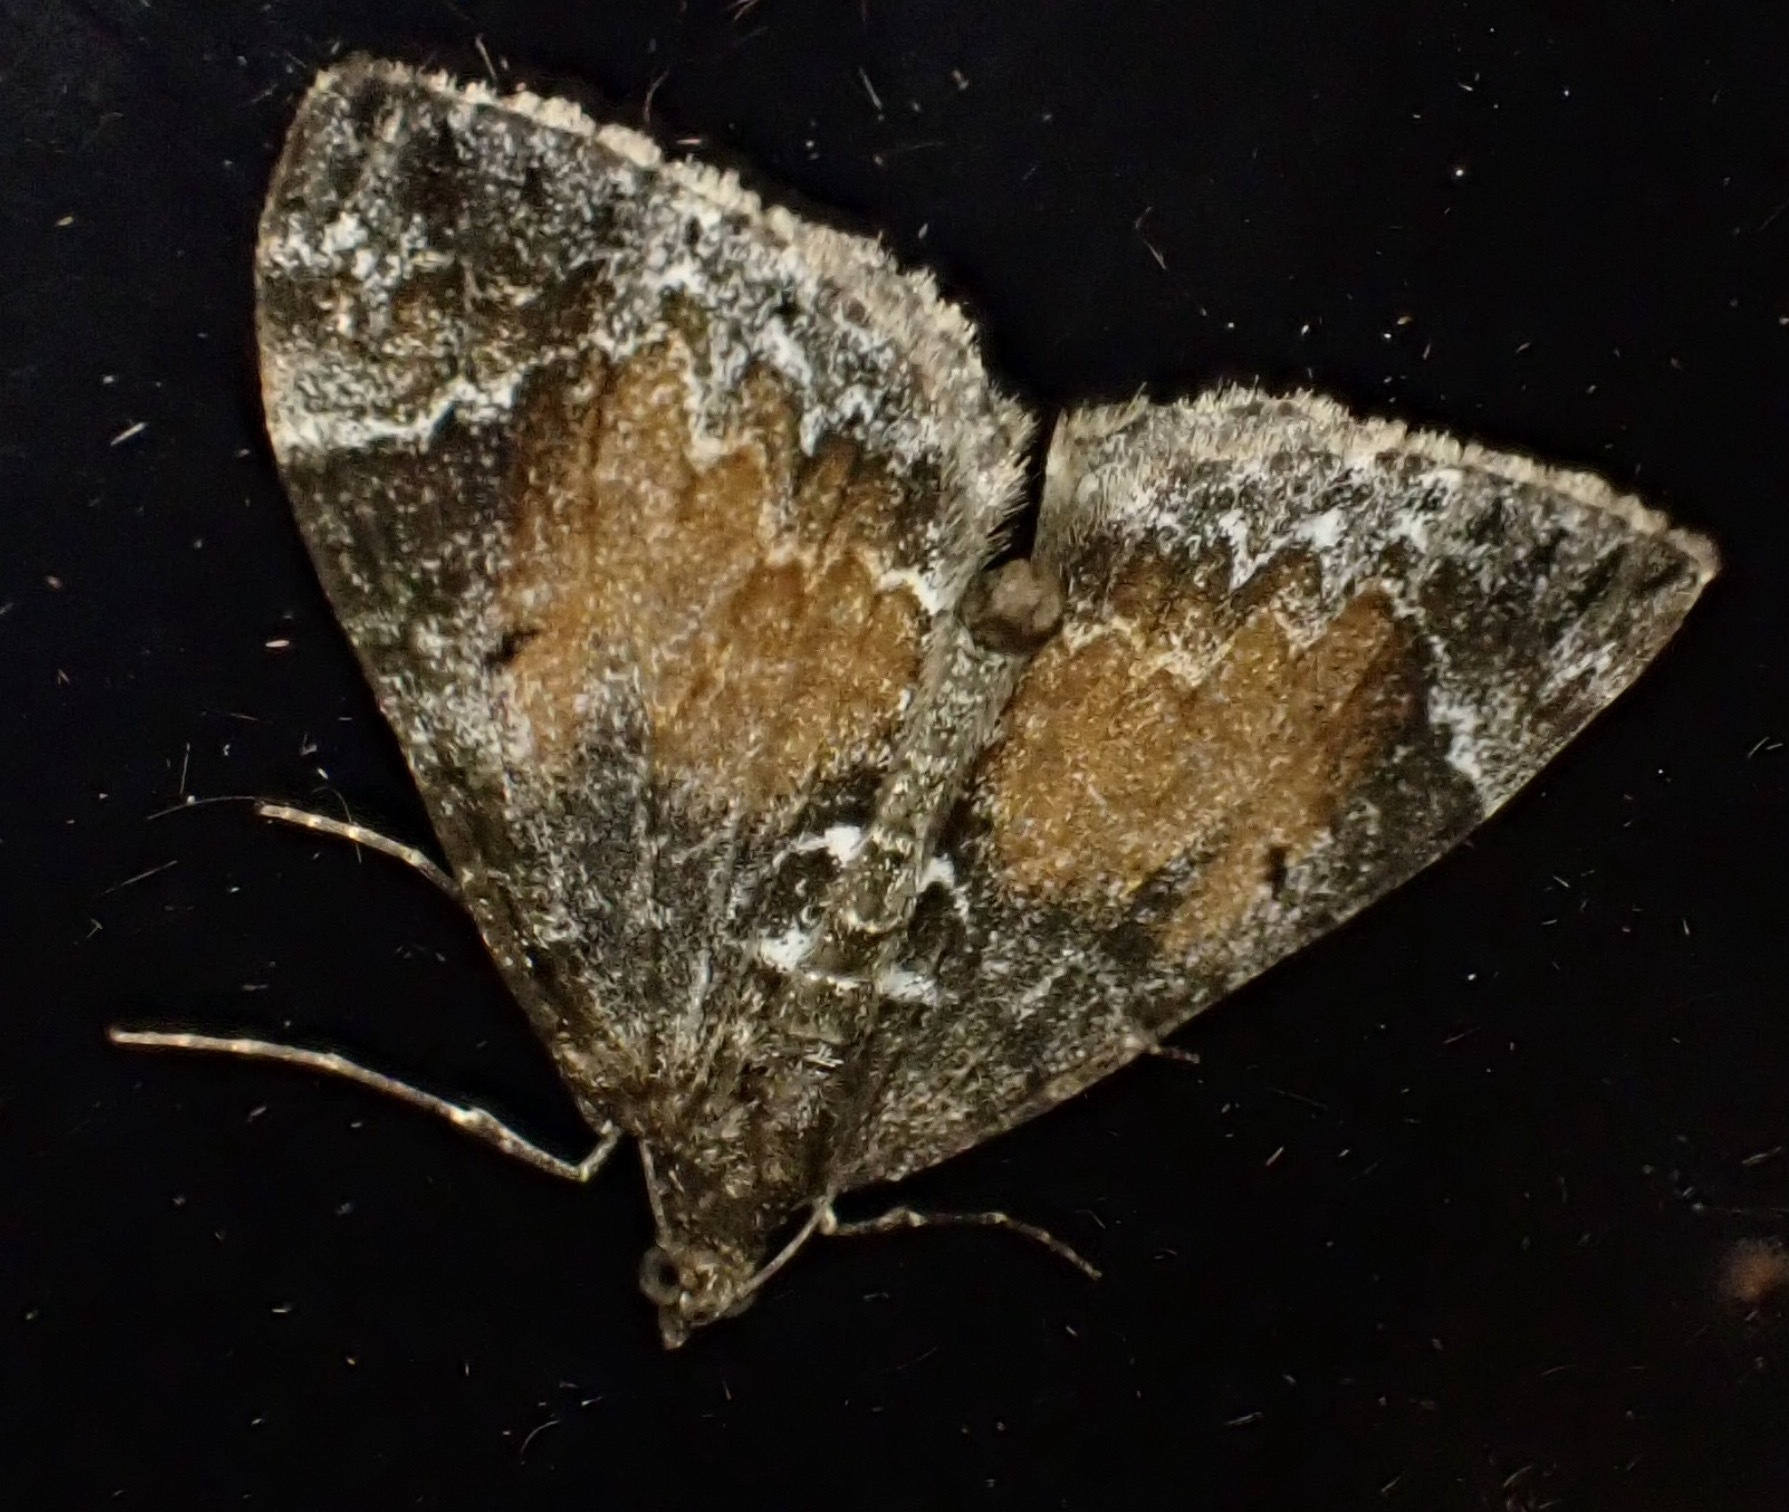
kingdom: Animalia
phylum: Arthropoda
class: Insecta
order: Lepidoptera
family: Geometridae
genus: Dysstroma
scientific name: Dysstroma truncata
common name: Common marbled carpet
